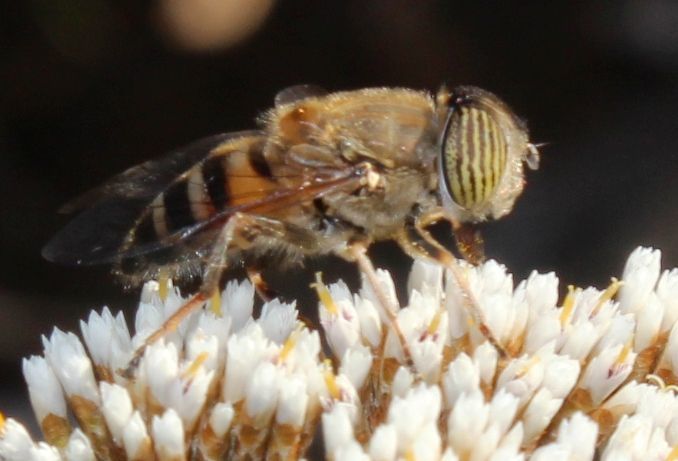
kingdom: Animalia
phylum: Arthropoda
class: Insecta
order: Diptera
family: Syrphidae
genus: Eristalinus
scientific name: Eristalinus taeniops
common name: Syrphid fly
